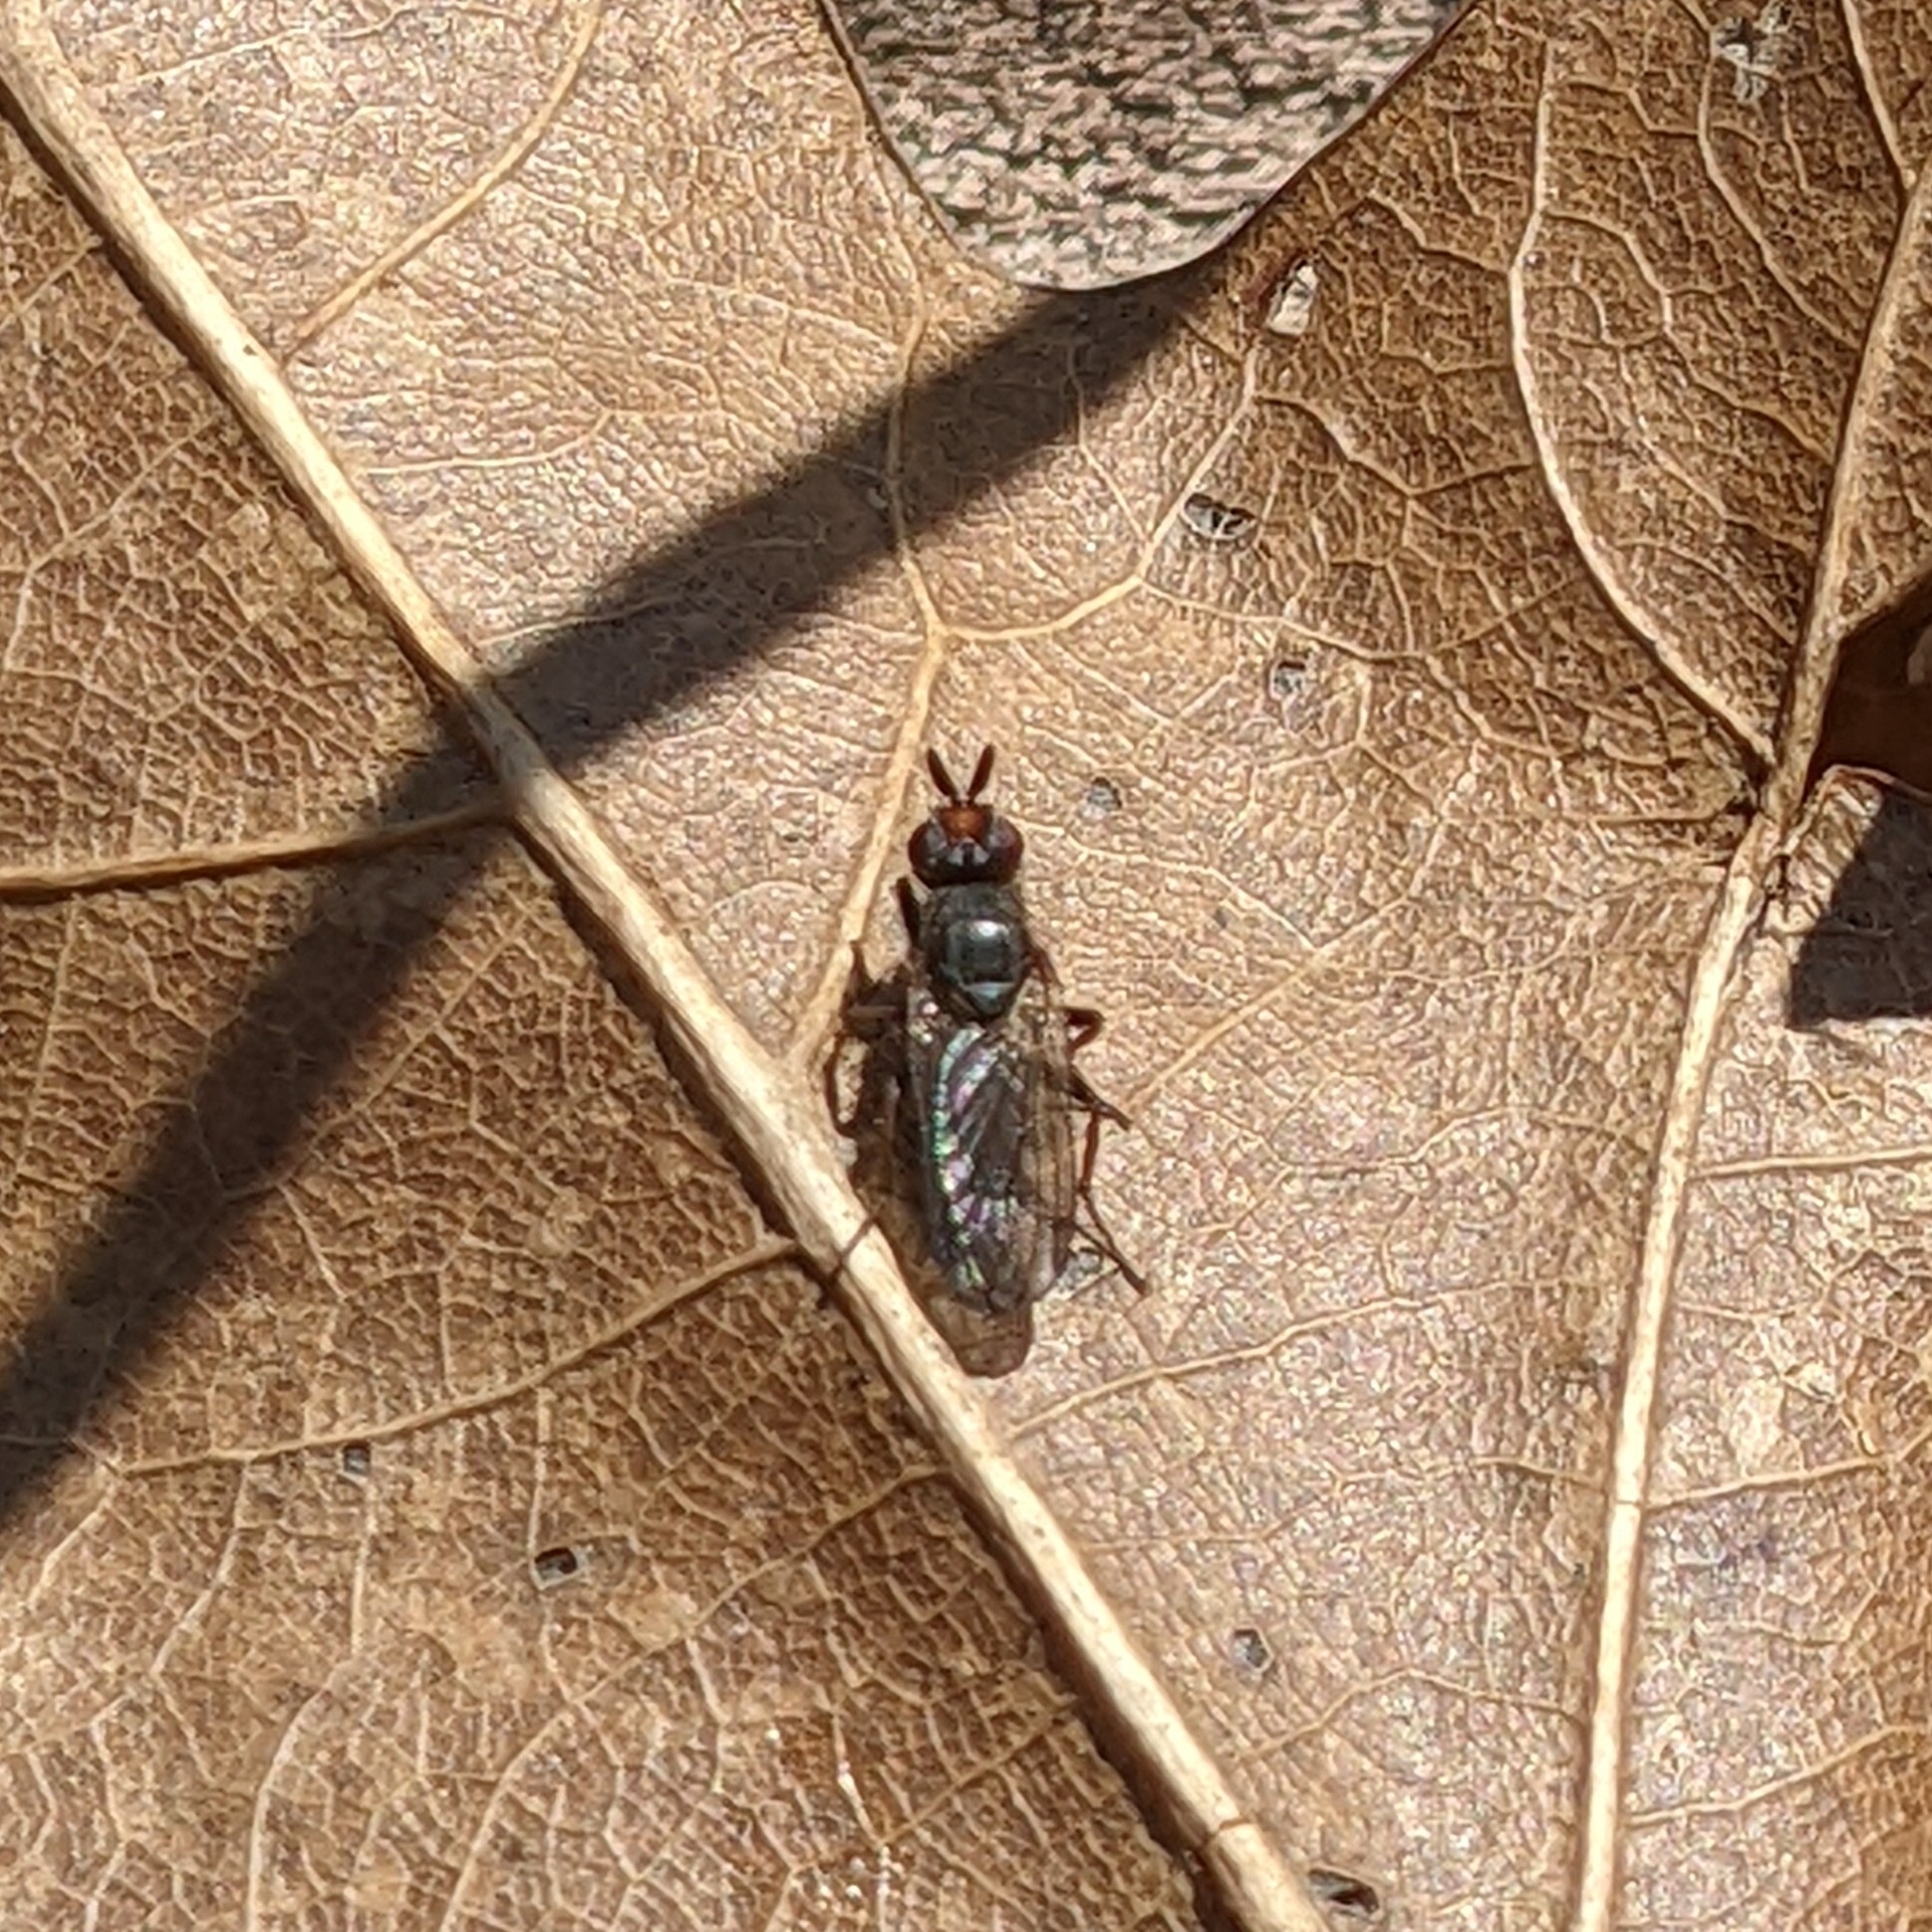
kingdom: Animalia
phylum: Arthropoda
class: Insecta
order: Diptera
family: Scathophagidae
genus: Bucephalina
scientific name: Bucephalina megacephala
